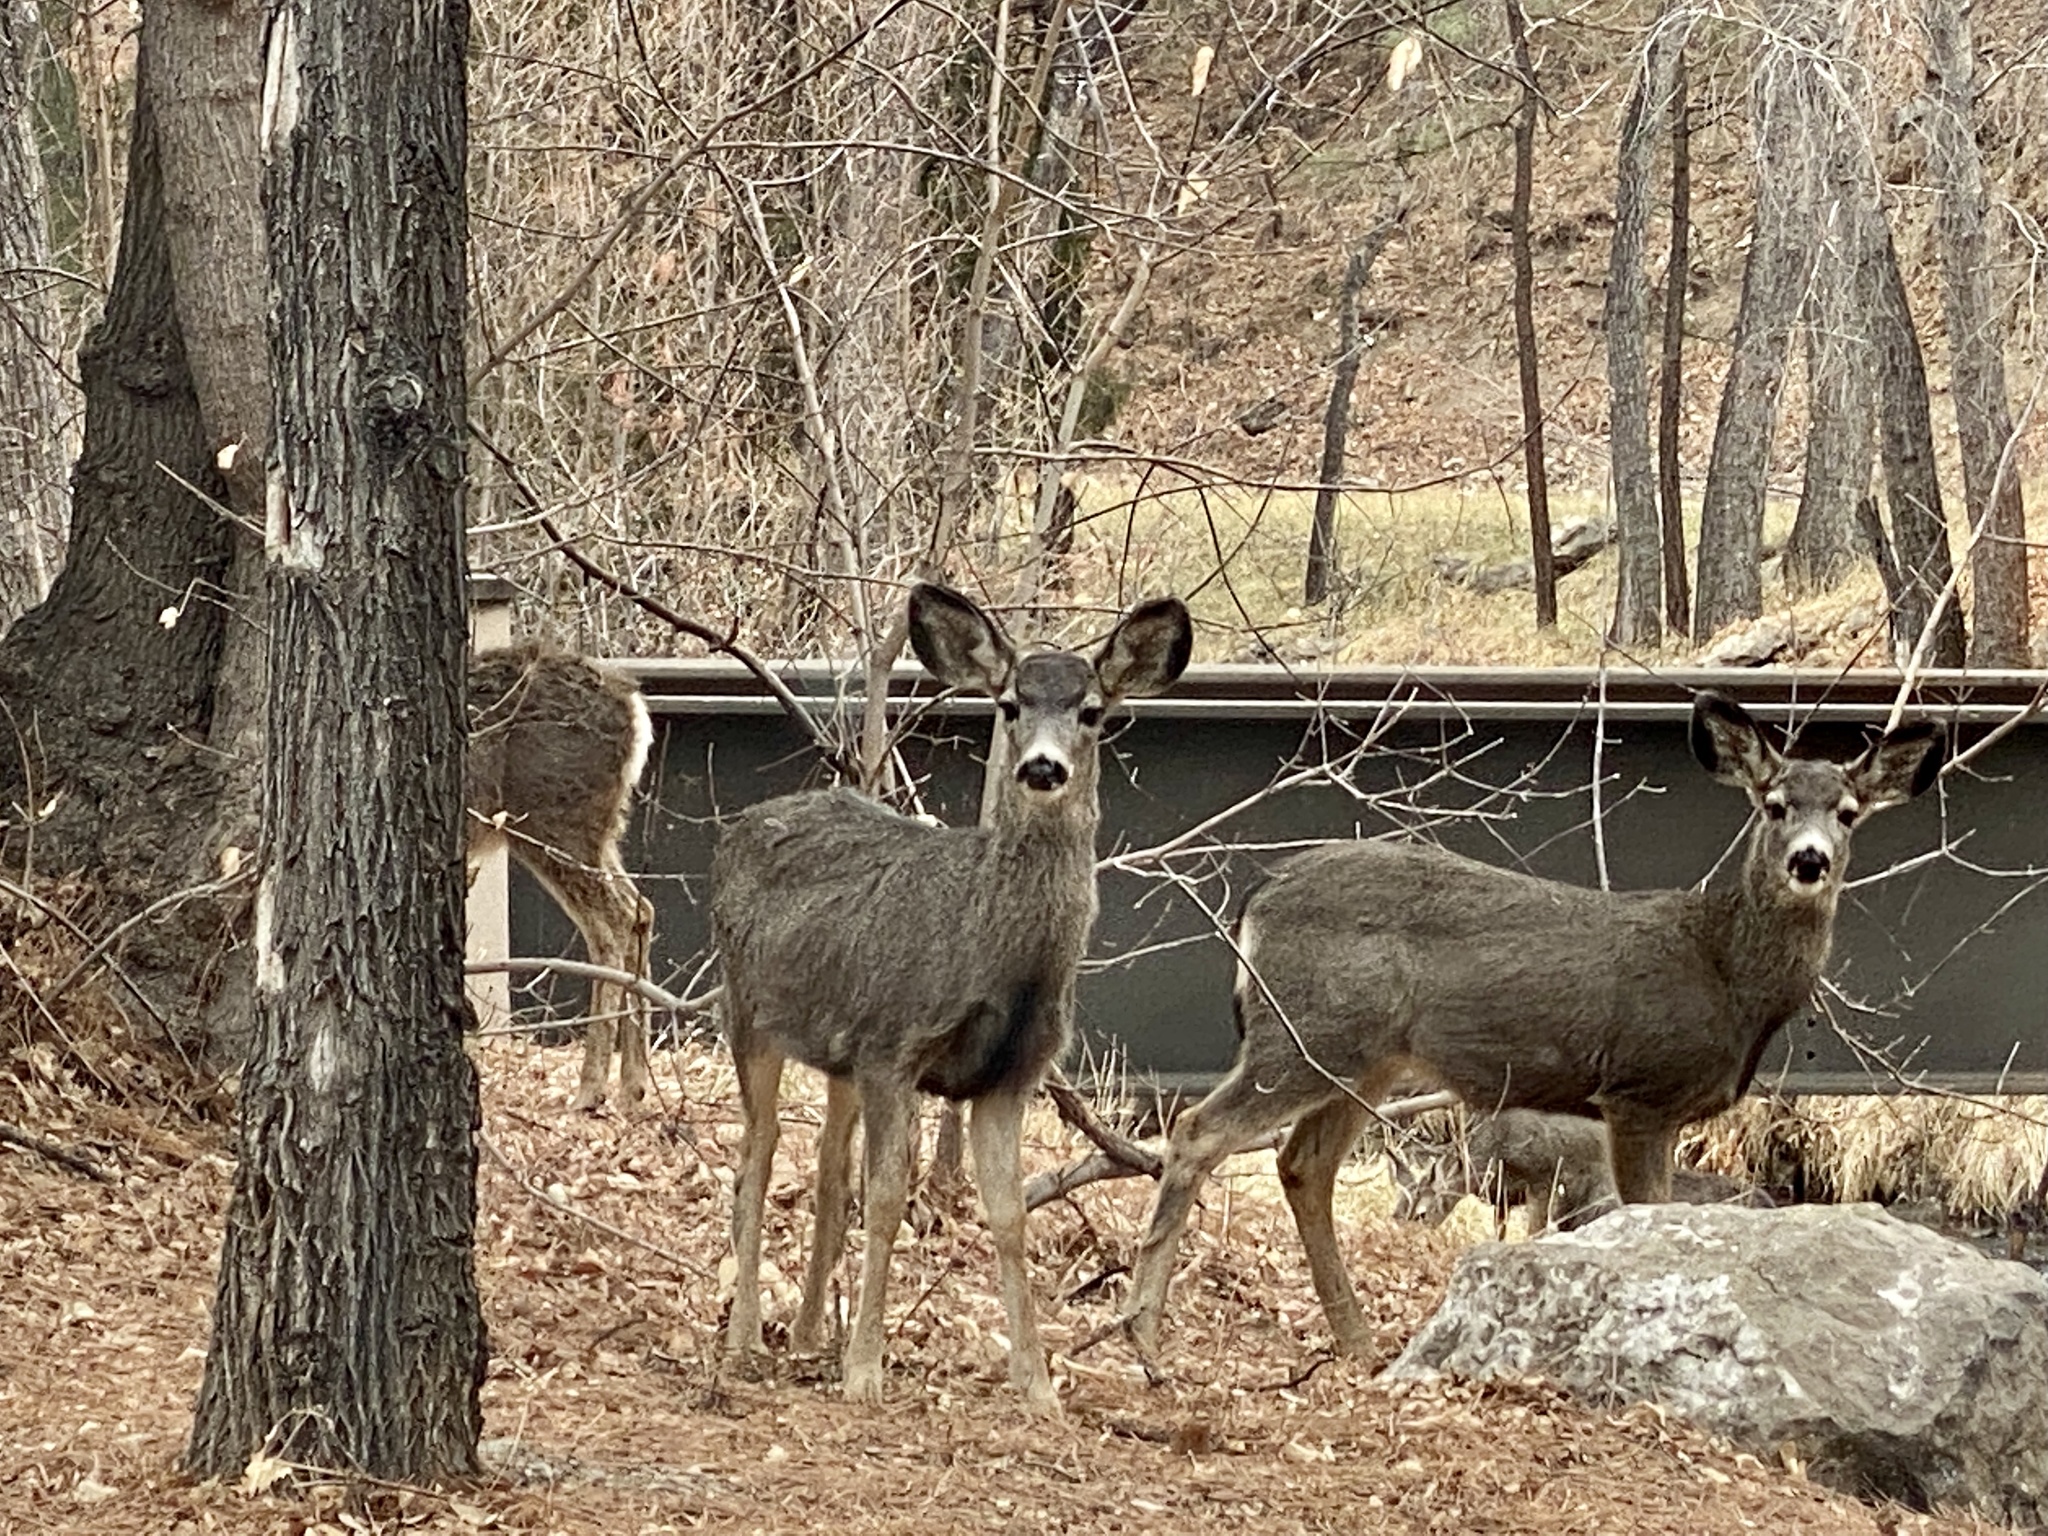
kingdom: Animalia
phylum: Chordata
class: Mammalia
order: Artiodactyla
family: Cervidae
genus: Odocoileus
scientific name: Odocoileus hemionus
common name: Mule deer
